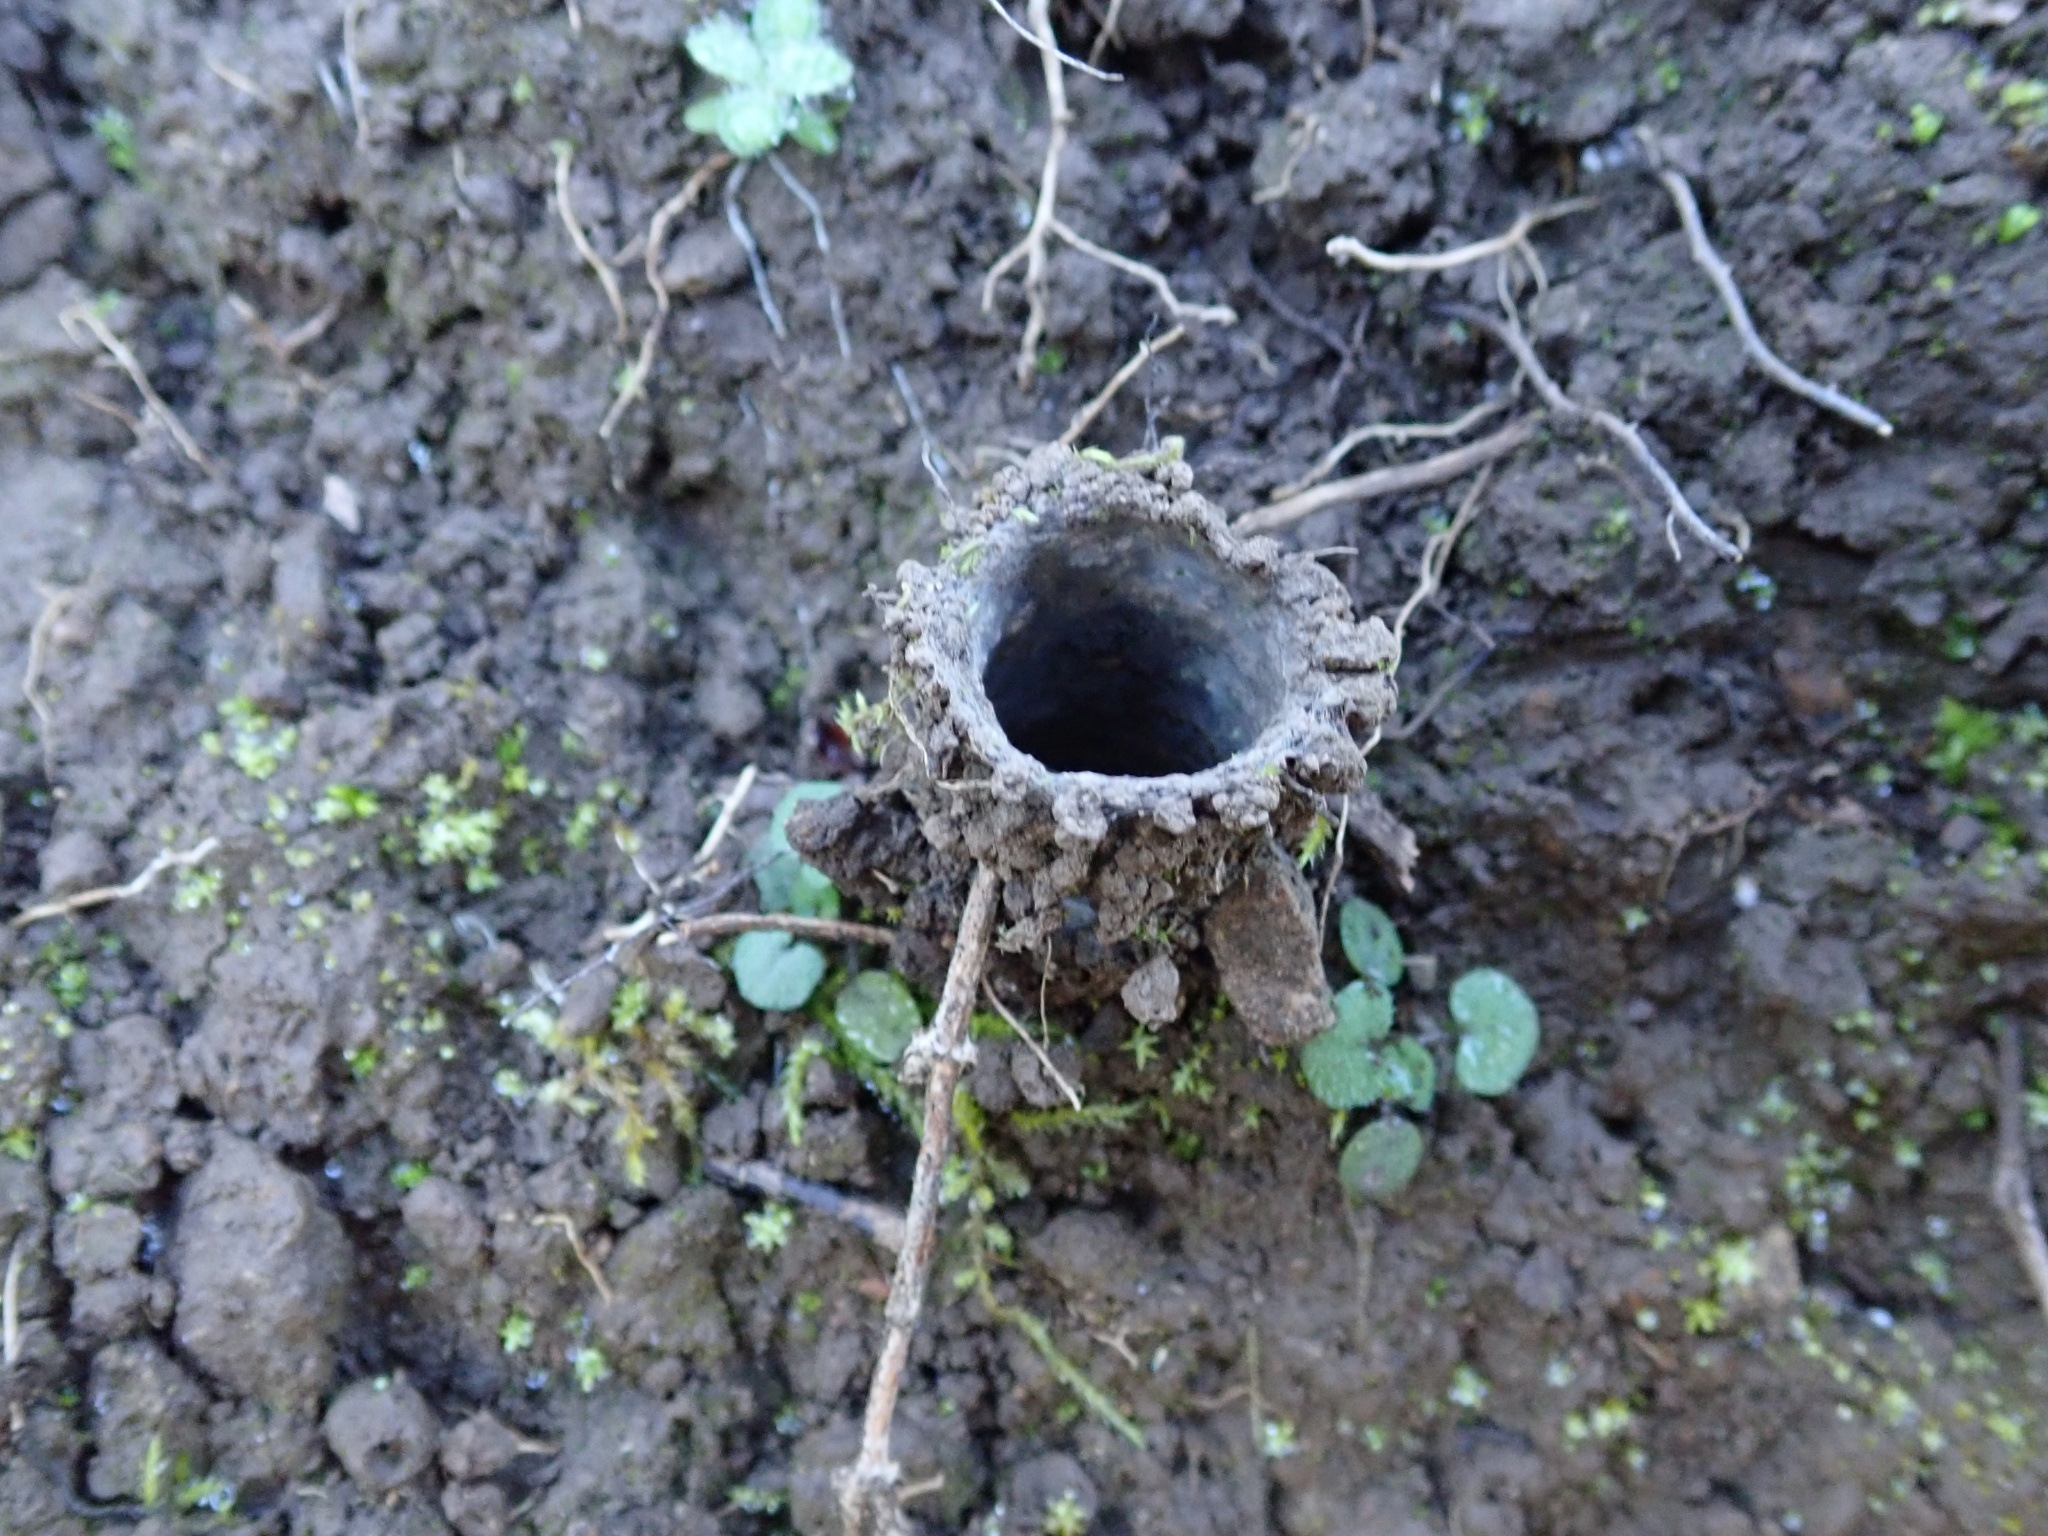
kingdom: Animalia
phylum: Arthropoda
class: Arachnida
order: Araneae
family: Antrodiaetidae
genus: Atypoides
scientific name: Atypoides riversi
